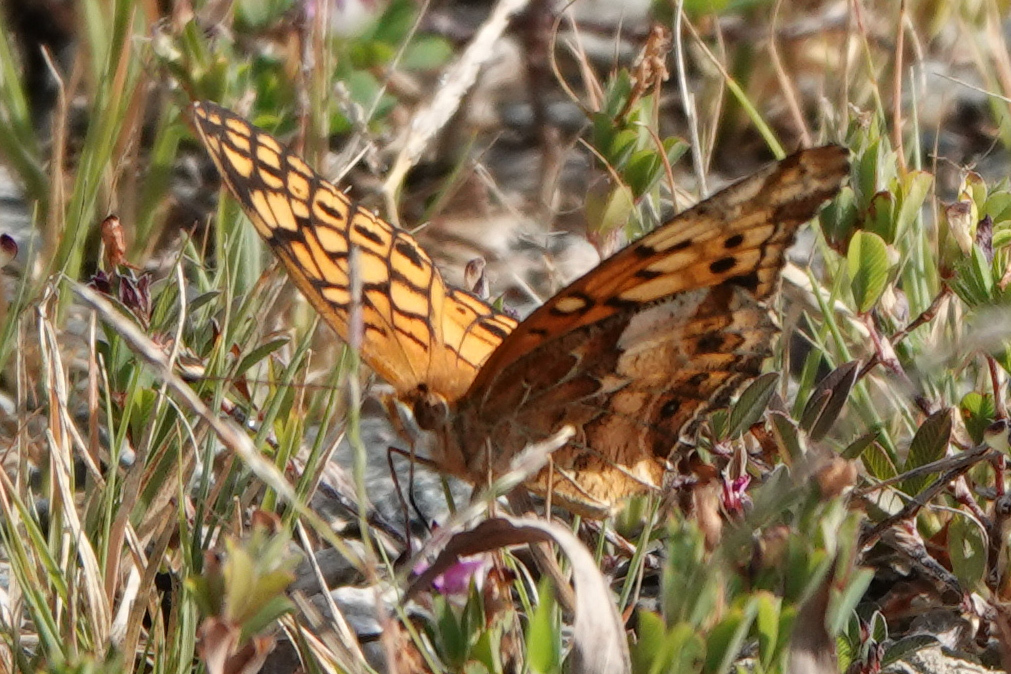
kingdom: Animalia
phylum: Arthropoda
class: Insecta
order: Lepidoptera
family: Nymphalidae
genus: Euptoieta
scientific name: Euptoieta claudia
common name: Variegated fritillary
